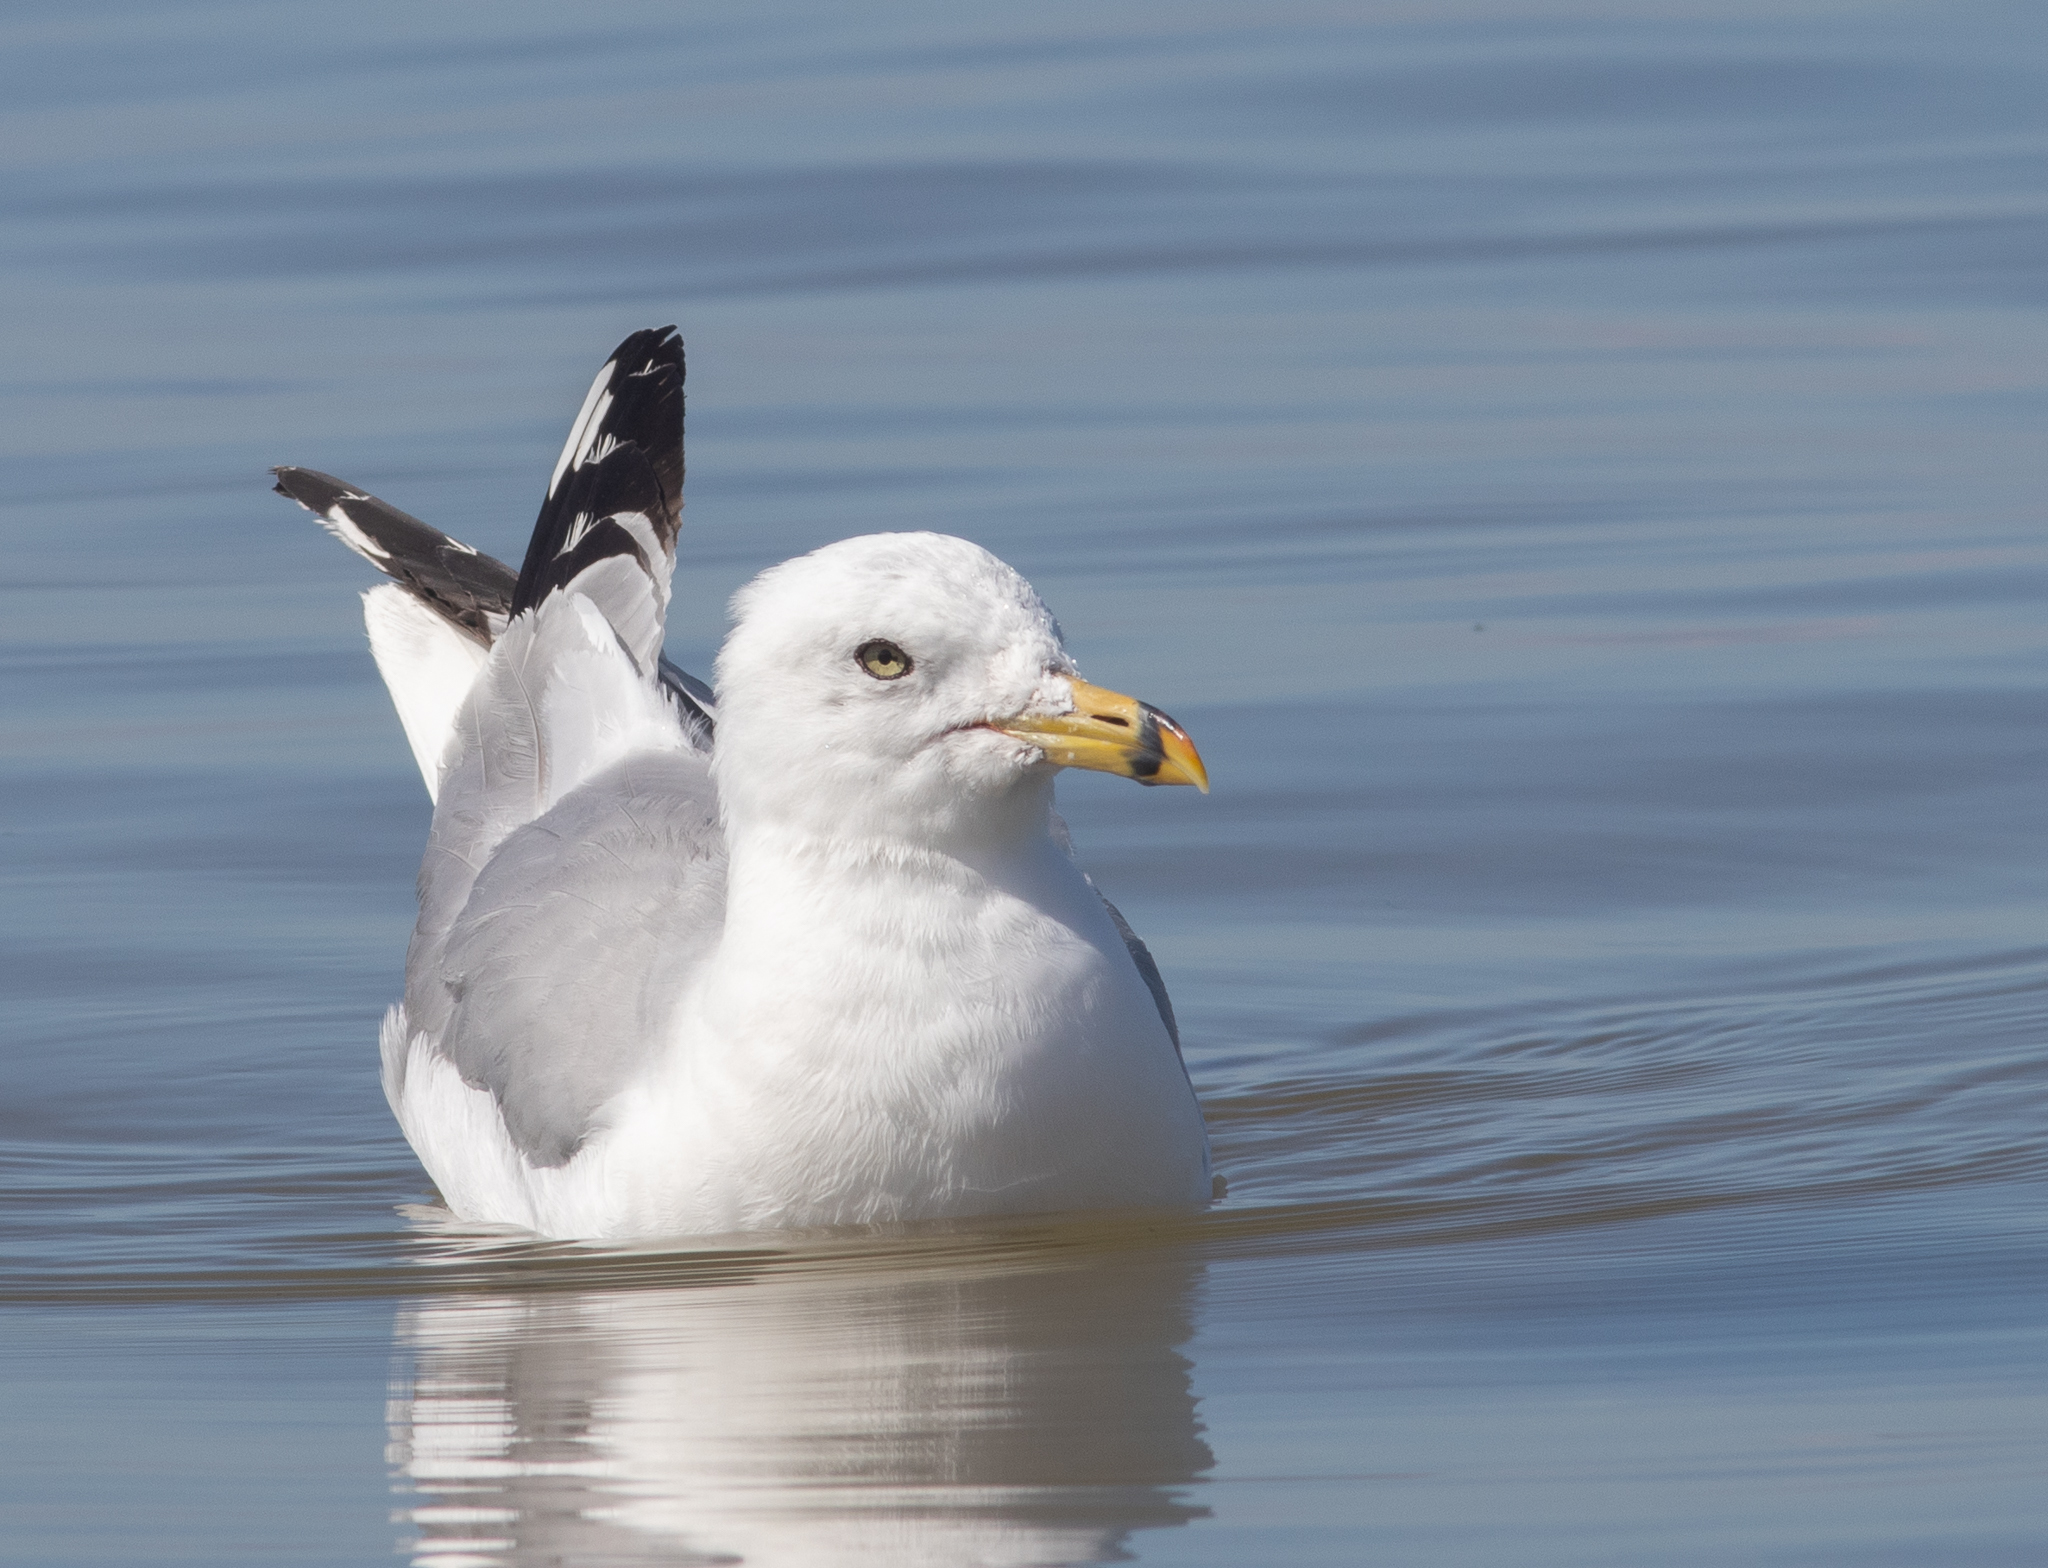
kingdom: Animalia
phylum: Chordata
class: Aves
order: Charadriiformes
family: Laridae
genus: Larus
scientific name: Larus delawarensis
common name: Ring-billed gull
